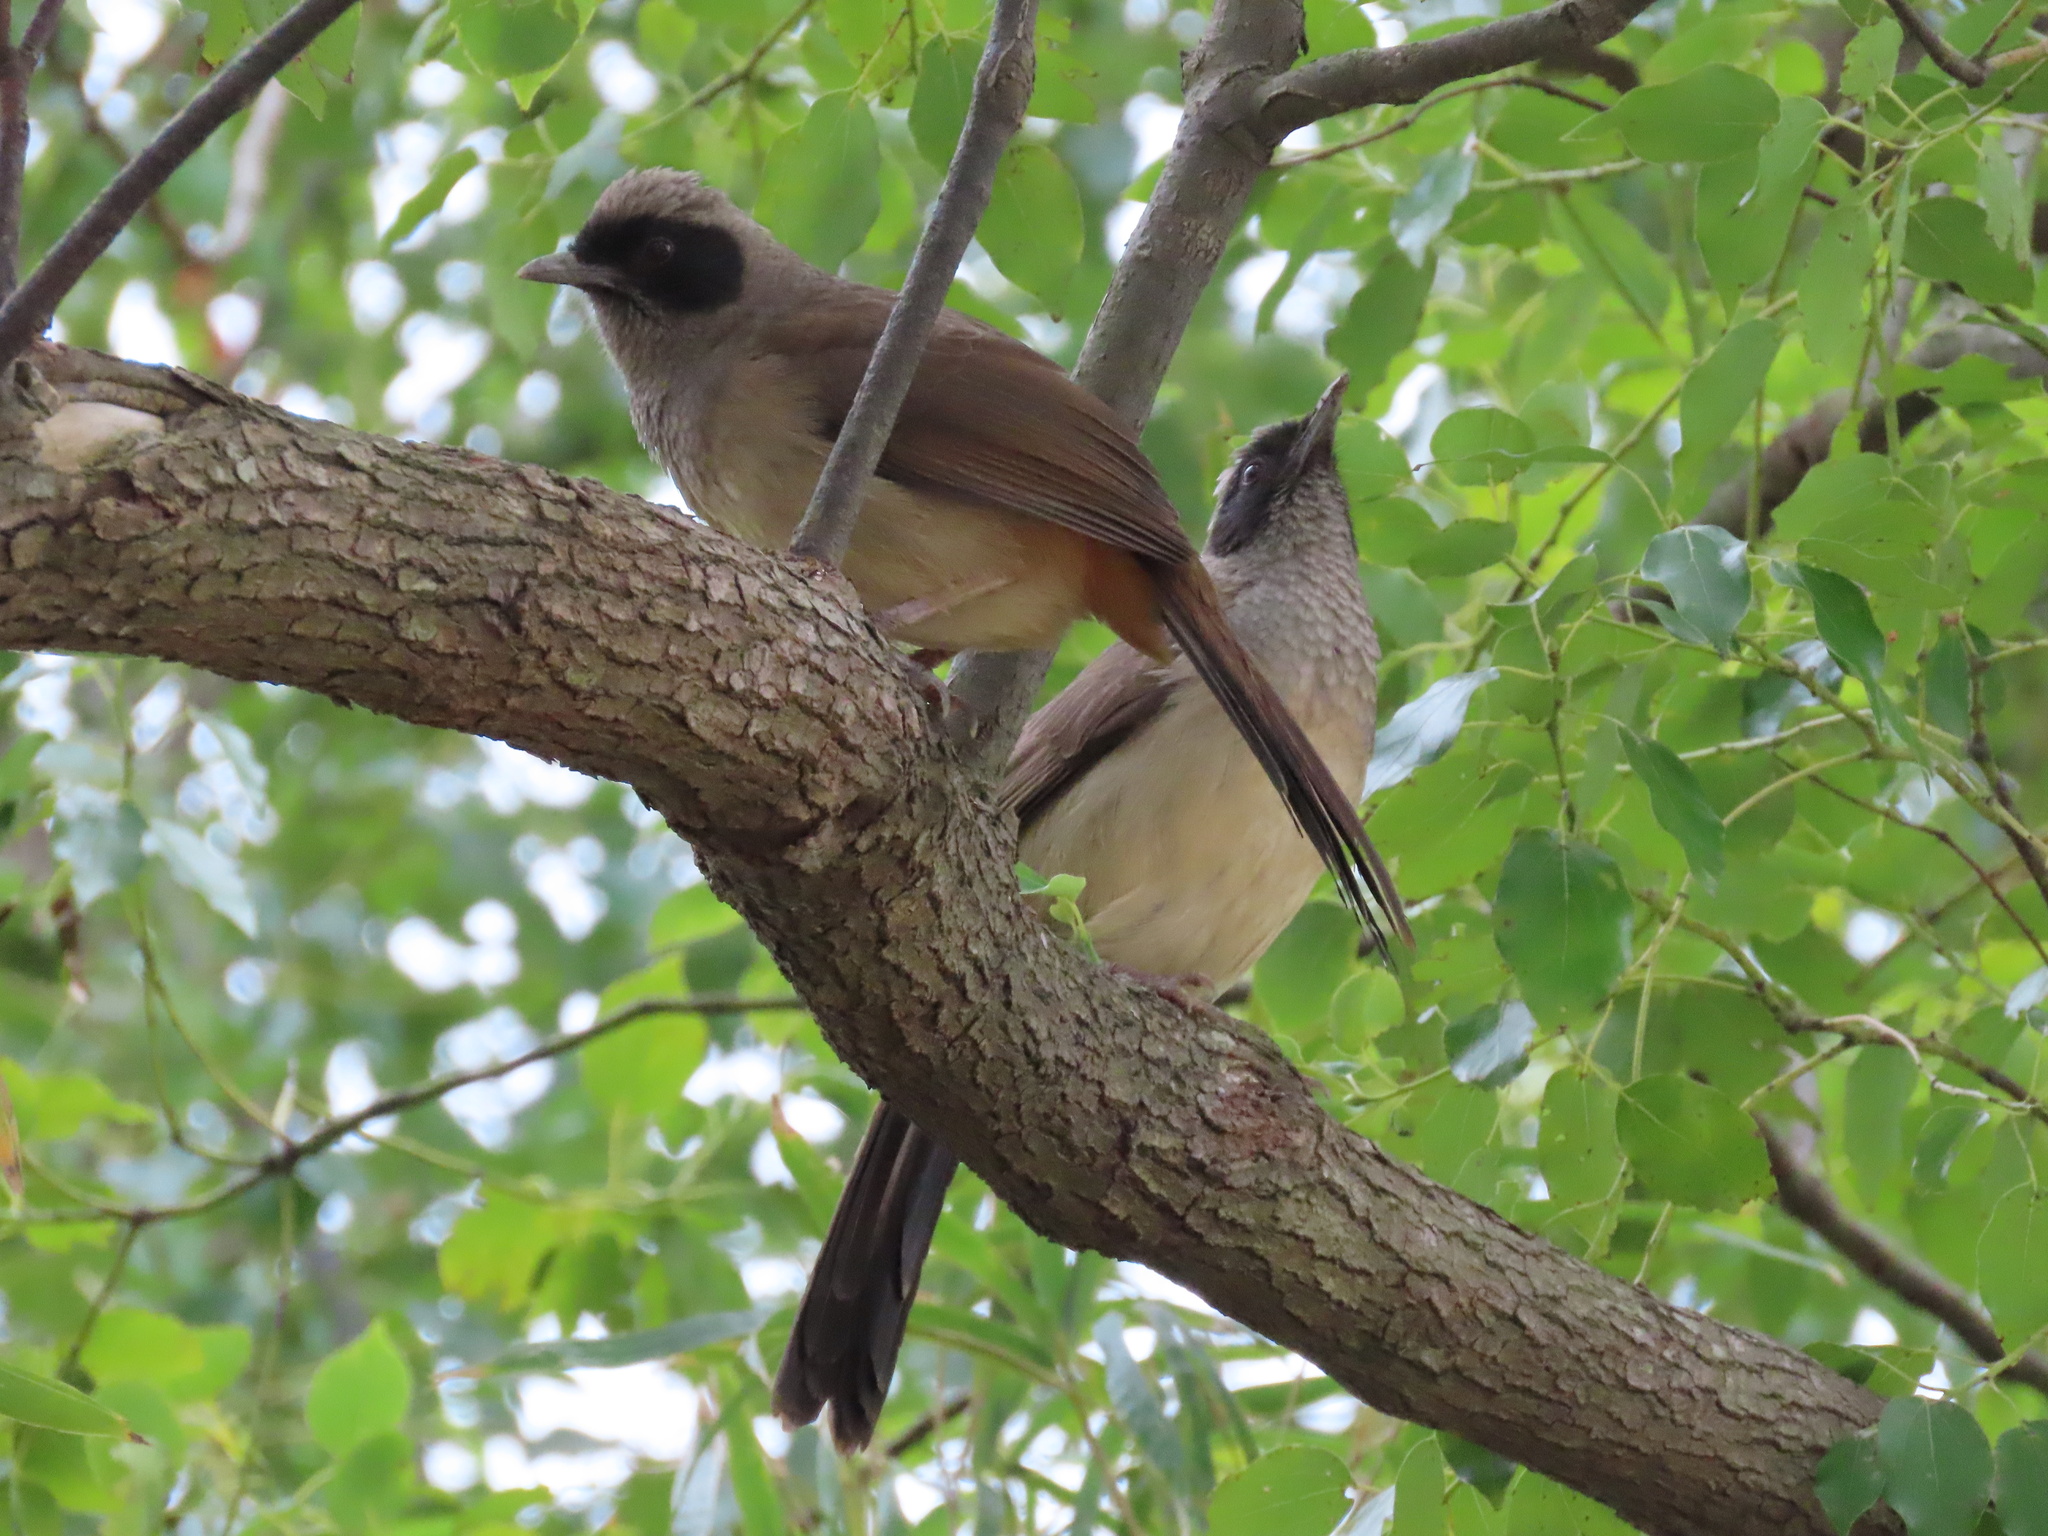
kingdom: Animalia
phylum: Chordata
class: Aves
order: Passeriformes
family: Leiothrichidae
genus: Garrulax
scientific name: Garrulax perspicillatus
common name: Masked laughingthrush
